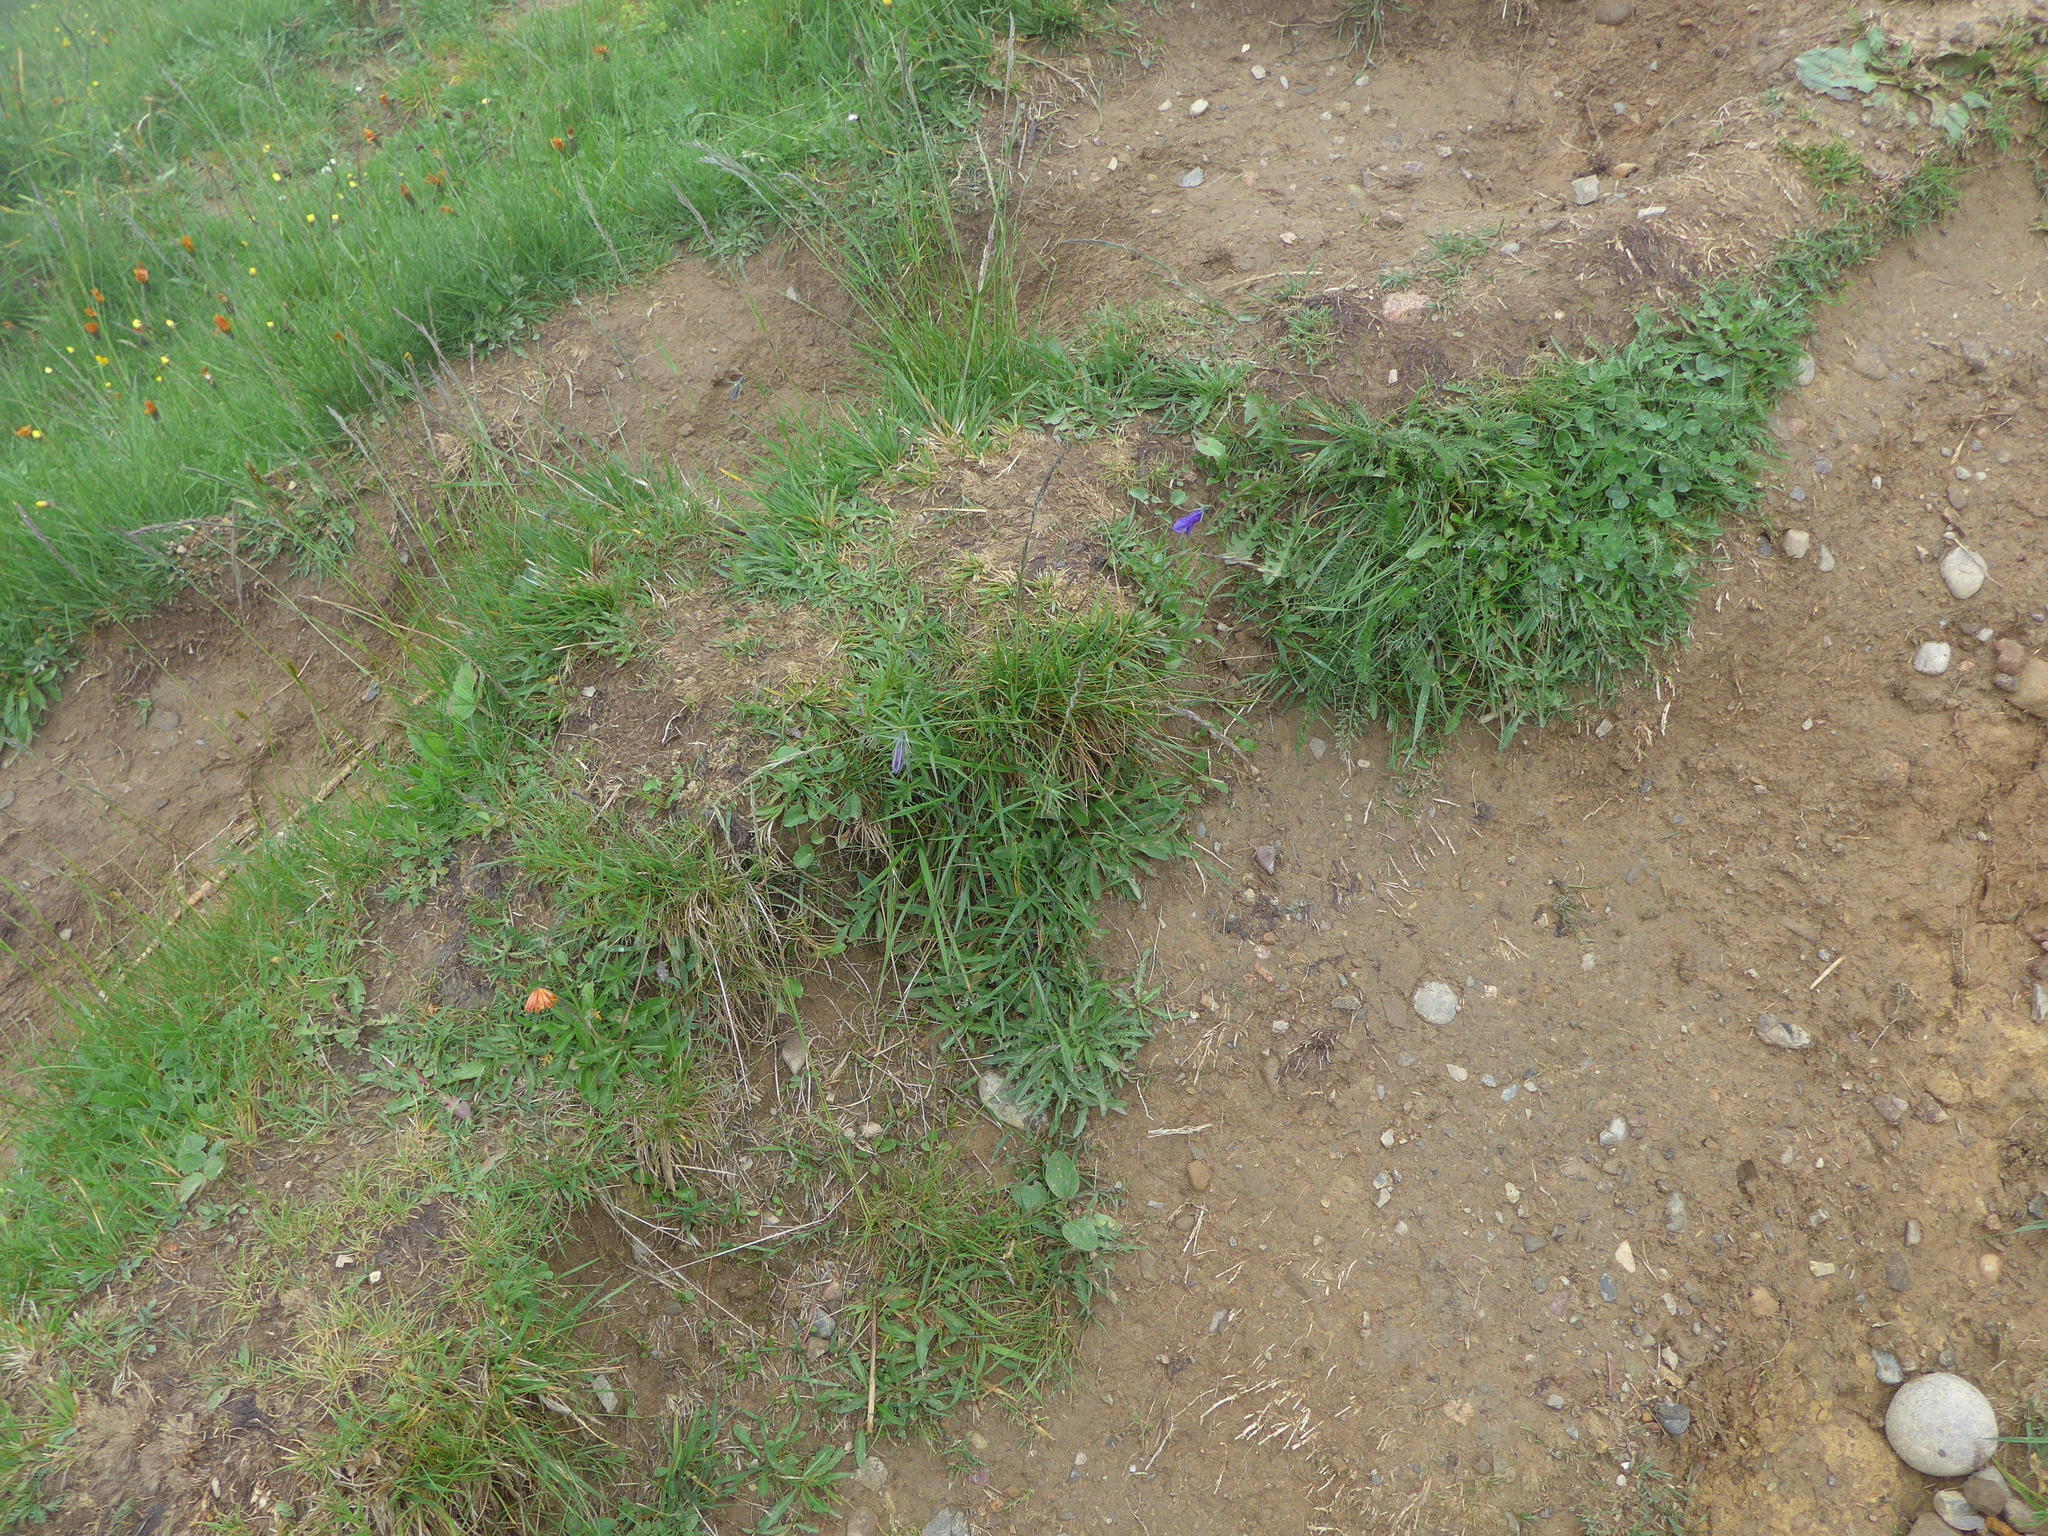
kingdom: Plantae
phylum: Tracheophyta
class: Magnoliopsida
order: Asterales
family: Campanulaceae
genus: Campanula
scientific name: Campanula rotundifolia
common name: Harebell
